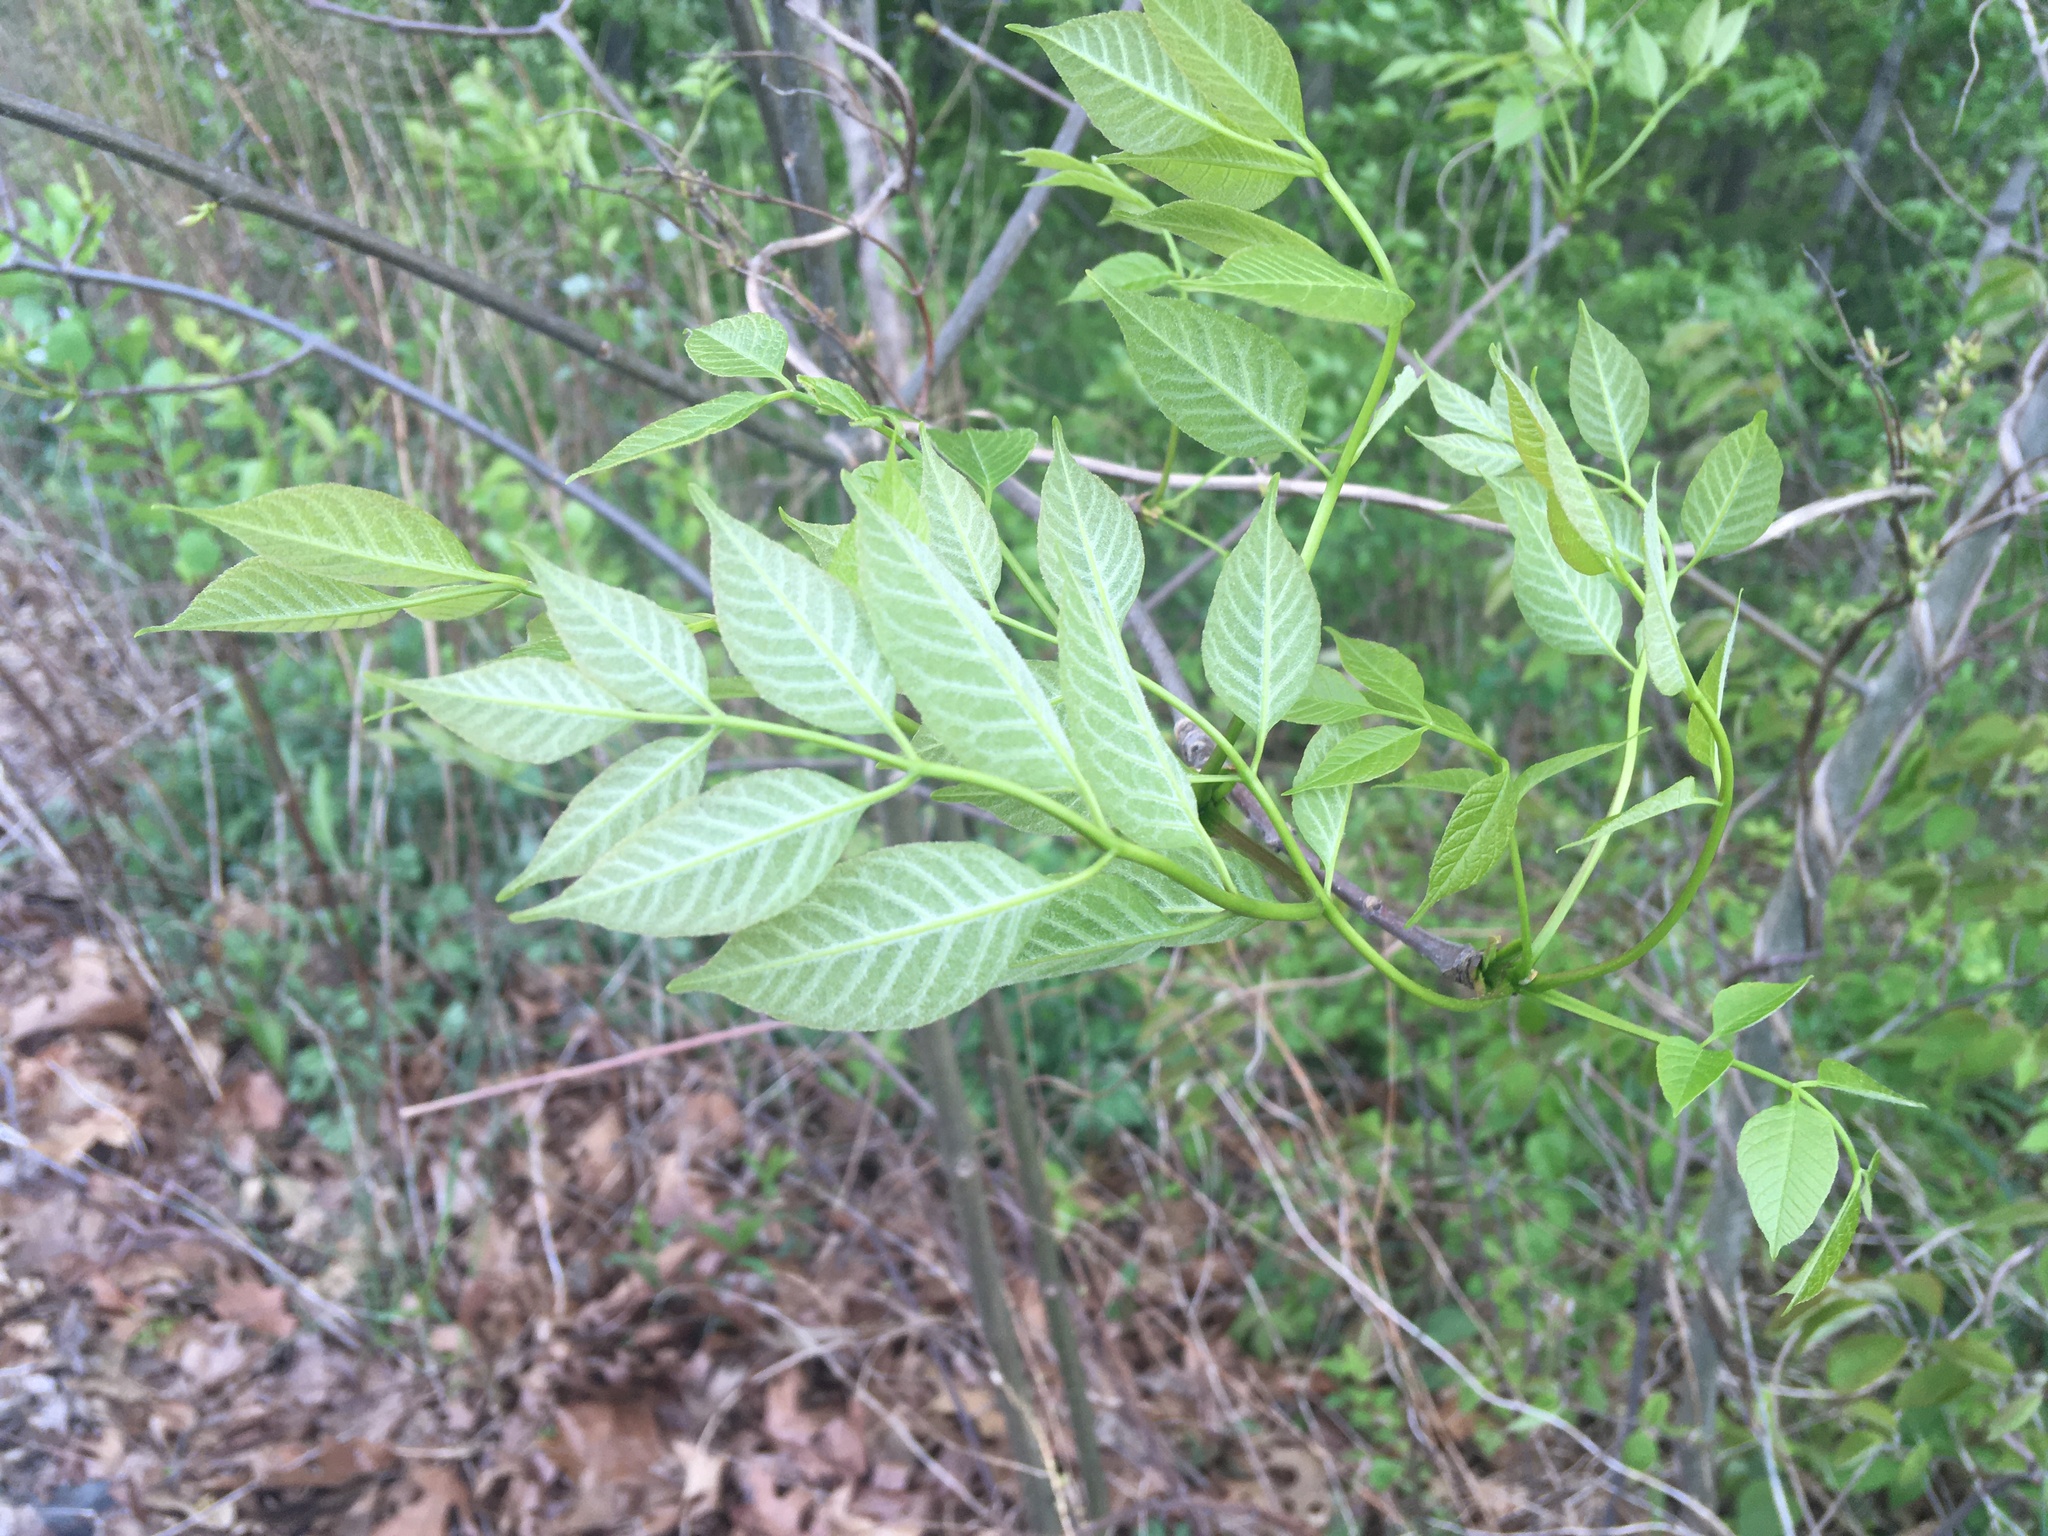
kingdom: Plantae
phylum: Tracheophyta
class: Magnoliopsida
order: Lamiales
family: Oleaceae
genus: Fraxinus
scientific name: Fraxinus americana
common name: White ash
